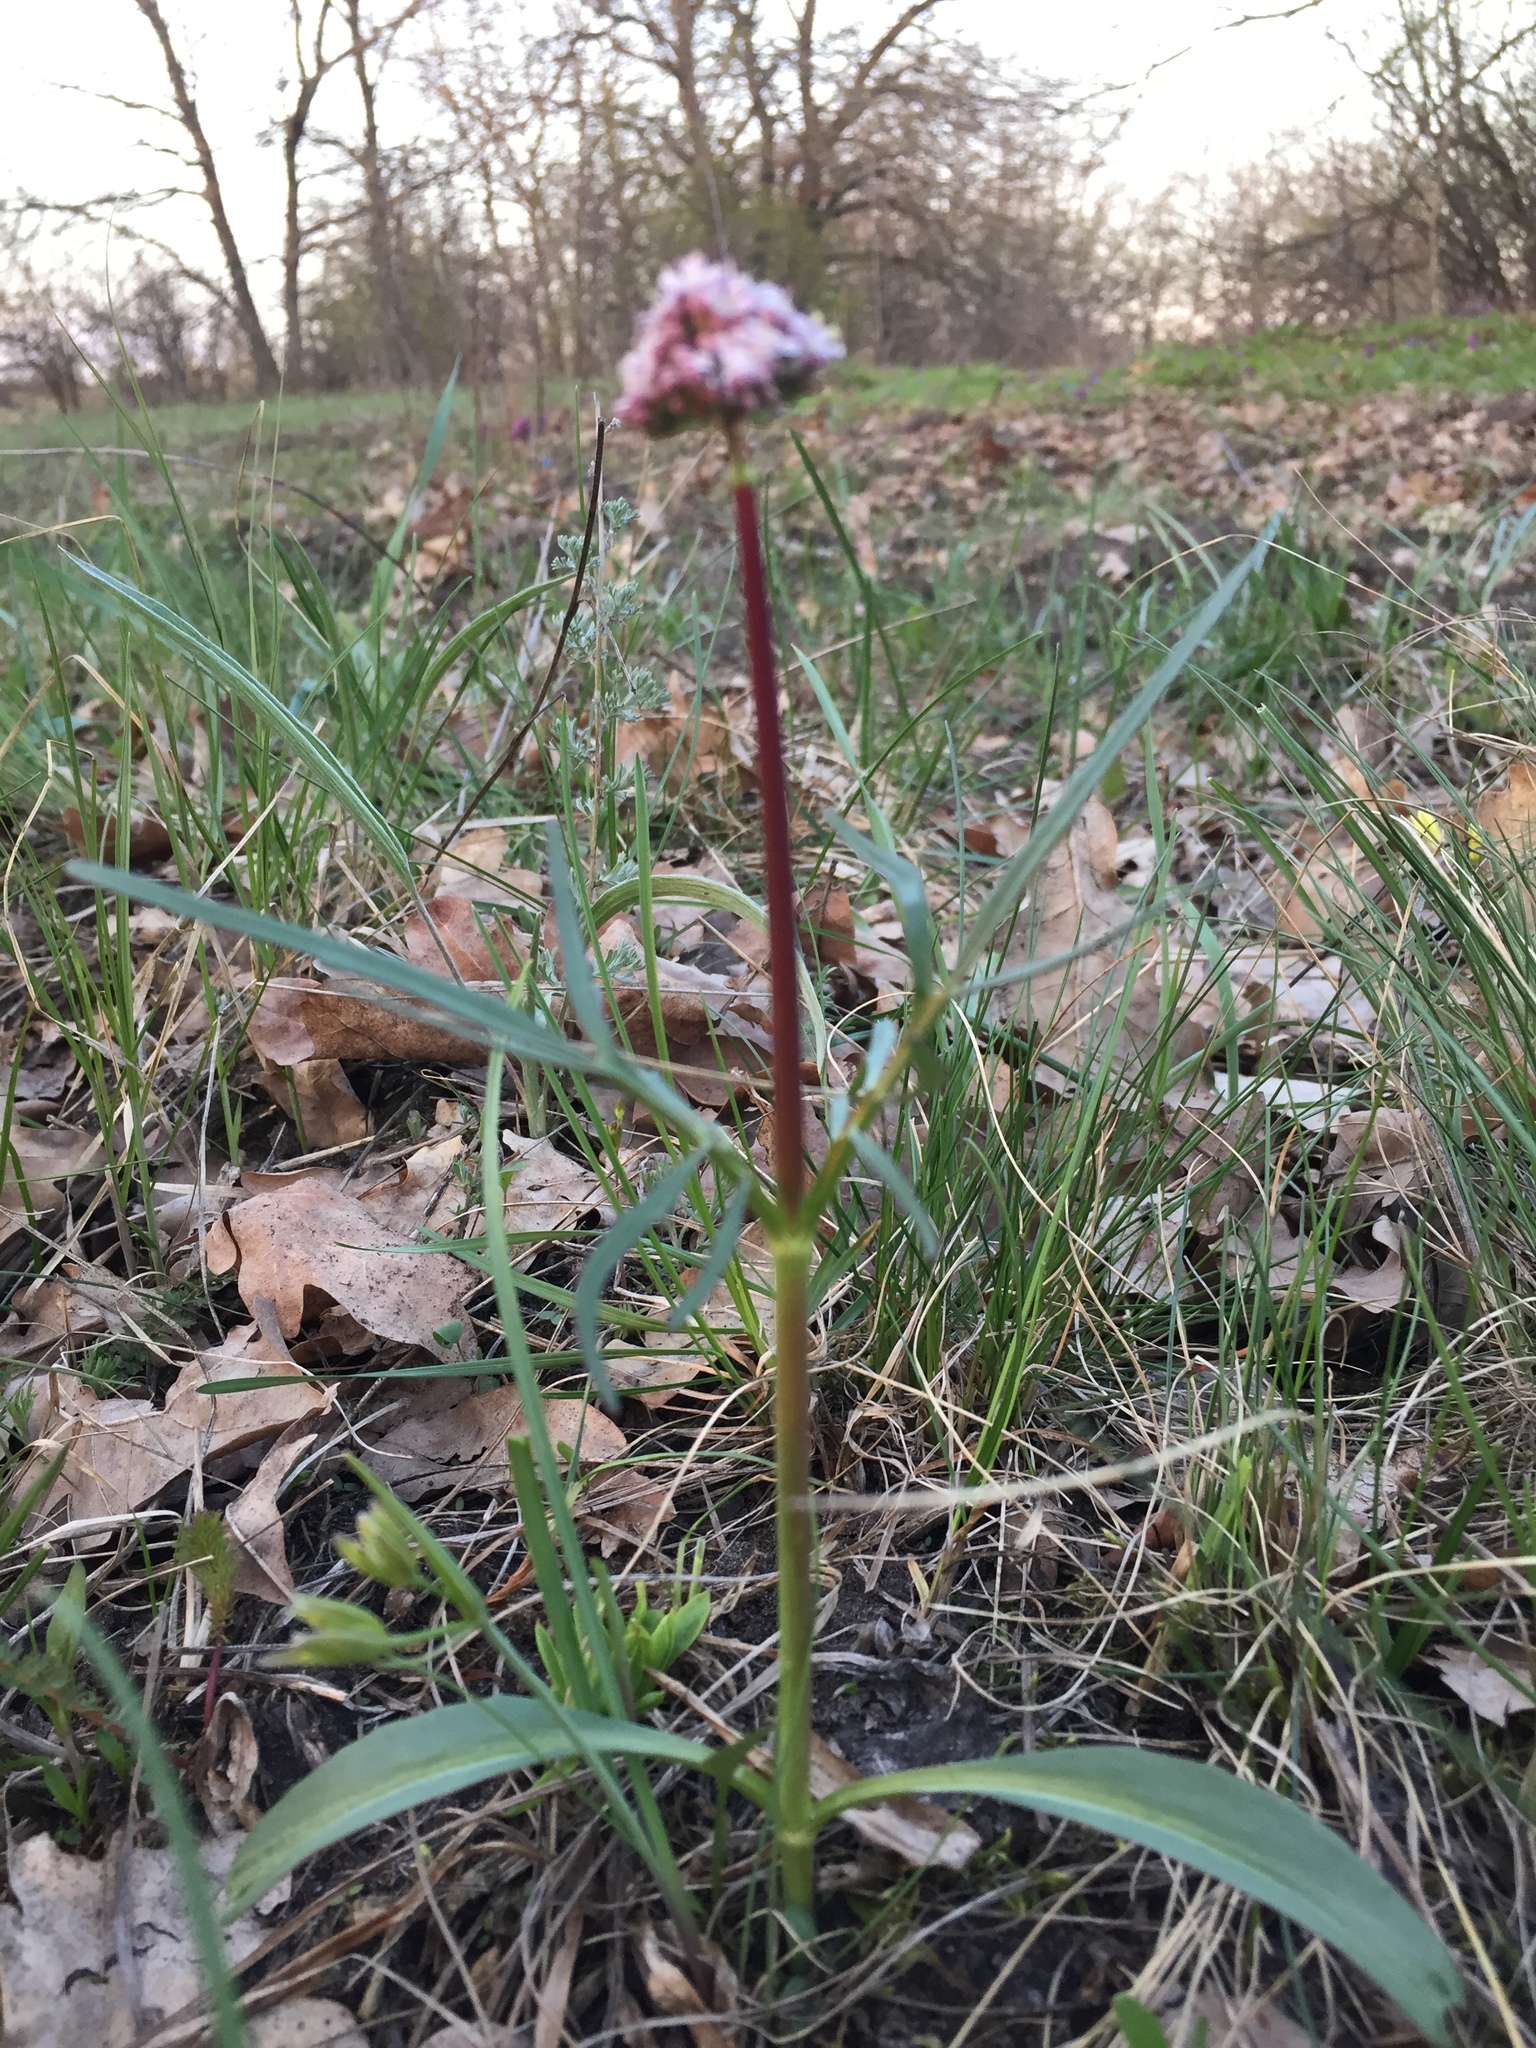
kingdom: Plantae
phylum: Tracheophyta
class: Magnoliopsida
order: Dipsacales
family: Caprifoliaceae
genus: Valeriana
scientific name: Valeriana tuberosa
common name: Tuberous valerian
